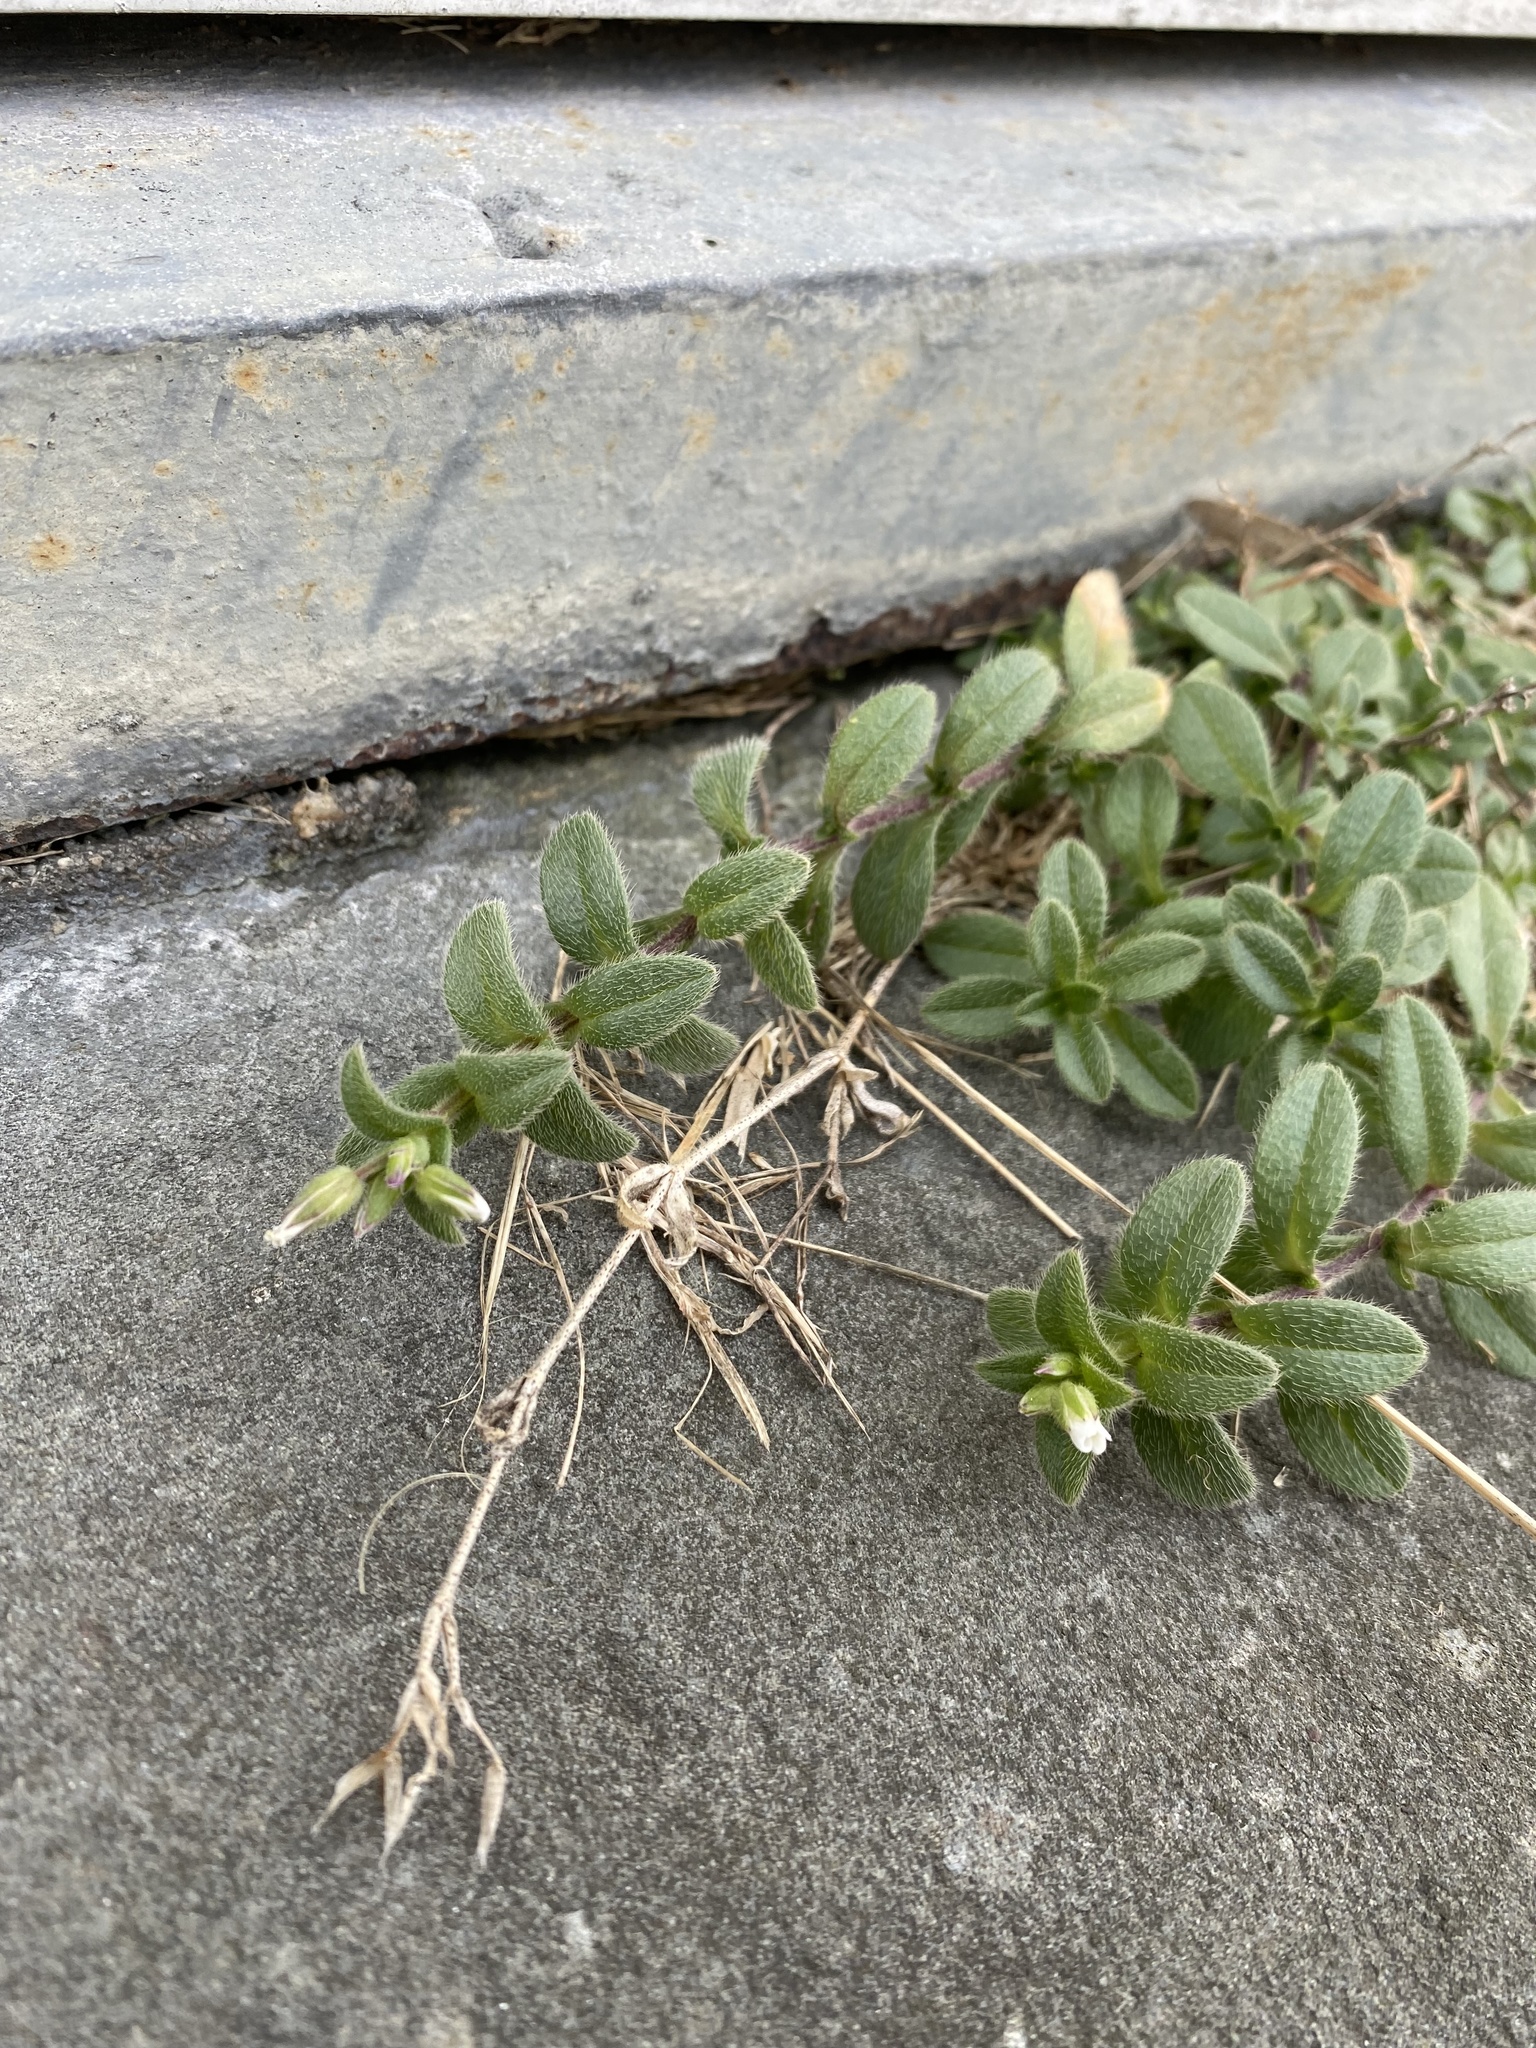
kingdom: Plantae
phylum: Tracheophyta
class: Magnoliopsida
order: Caryophyllales
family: Caryophyllaceae
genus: Cerastium
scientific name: Cerastium fontanum
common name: Common mouse-ear
